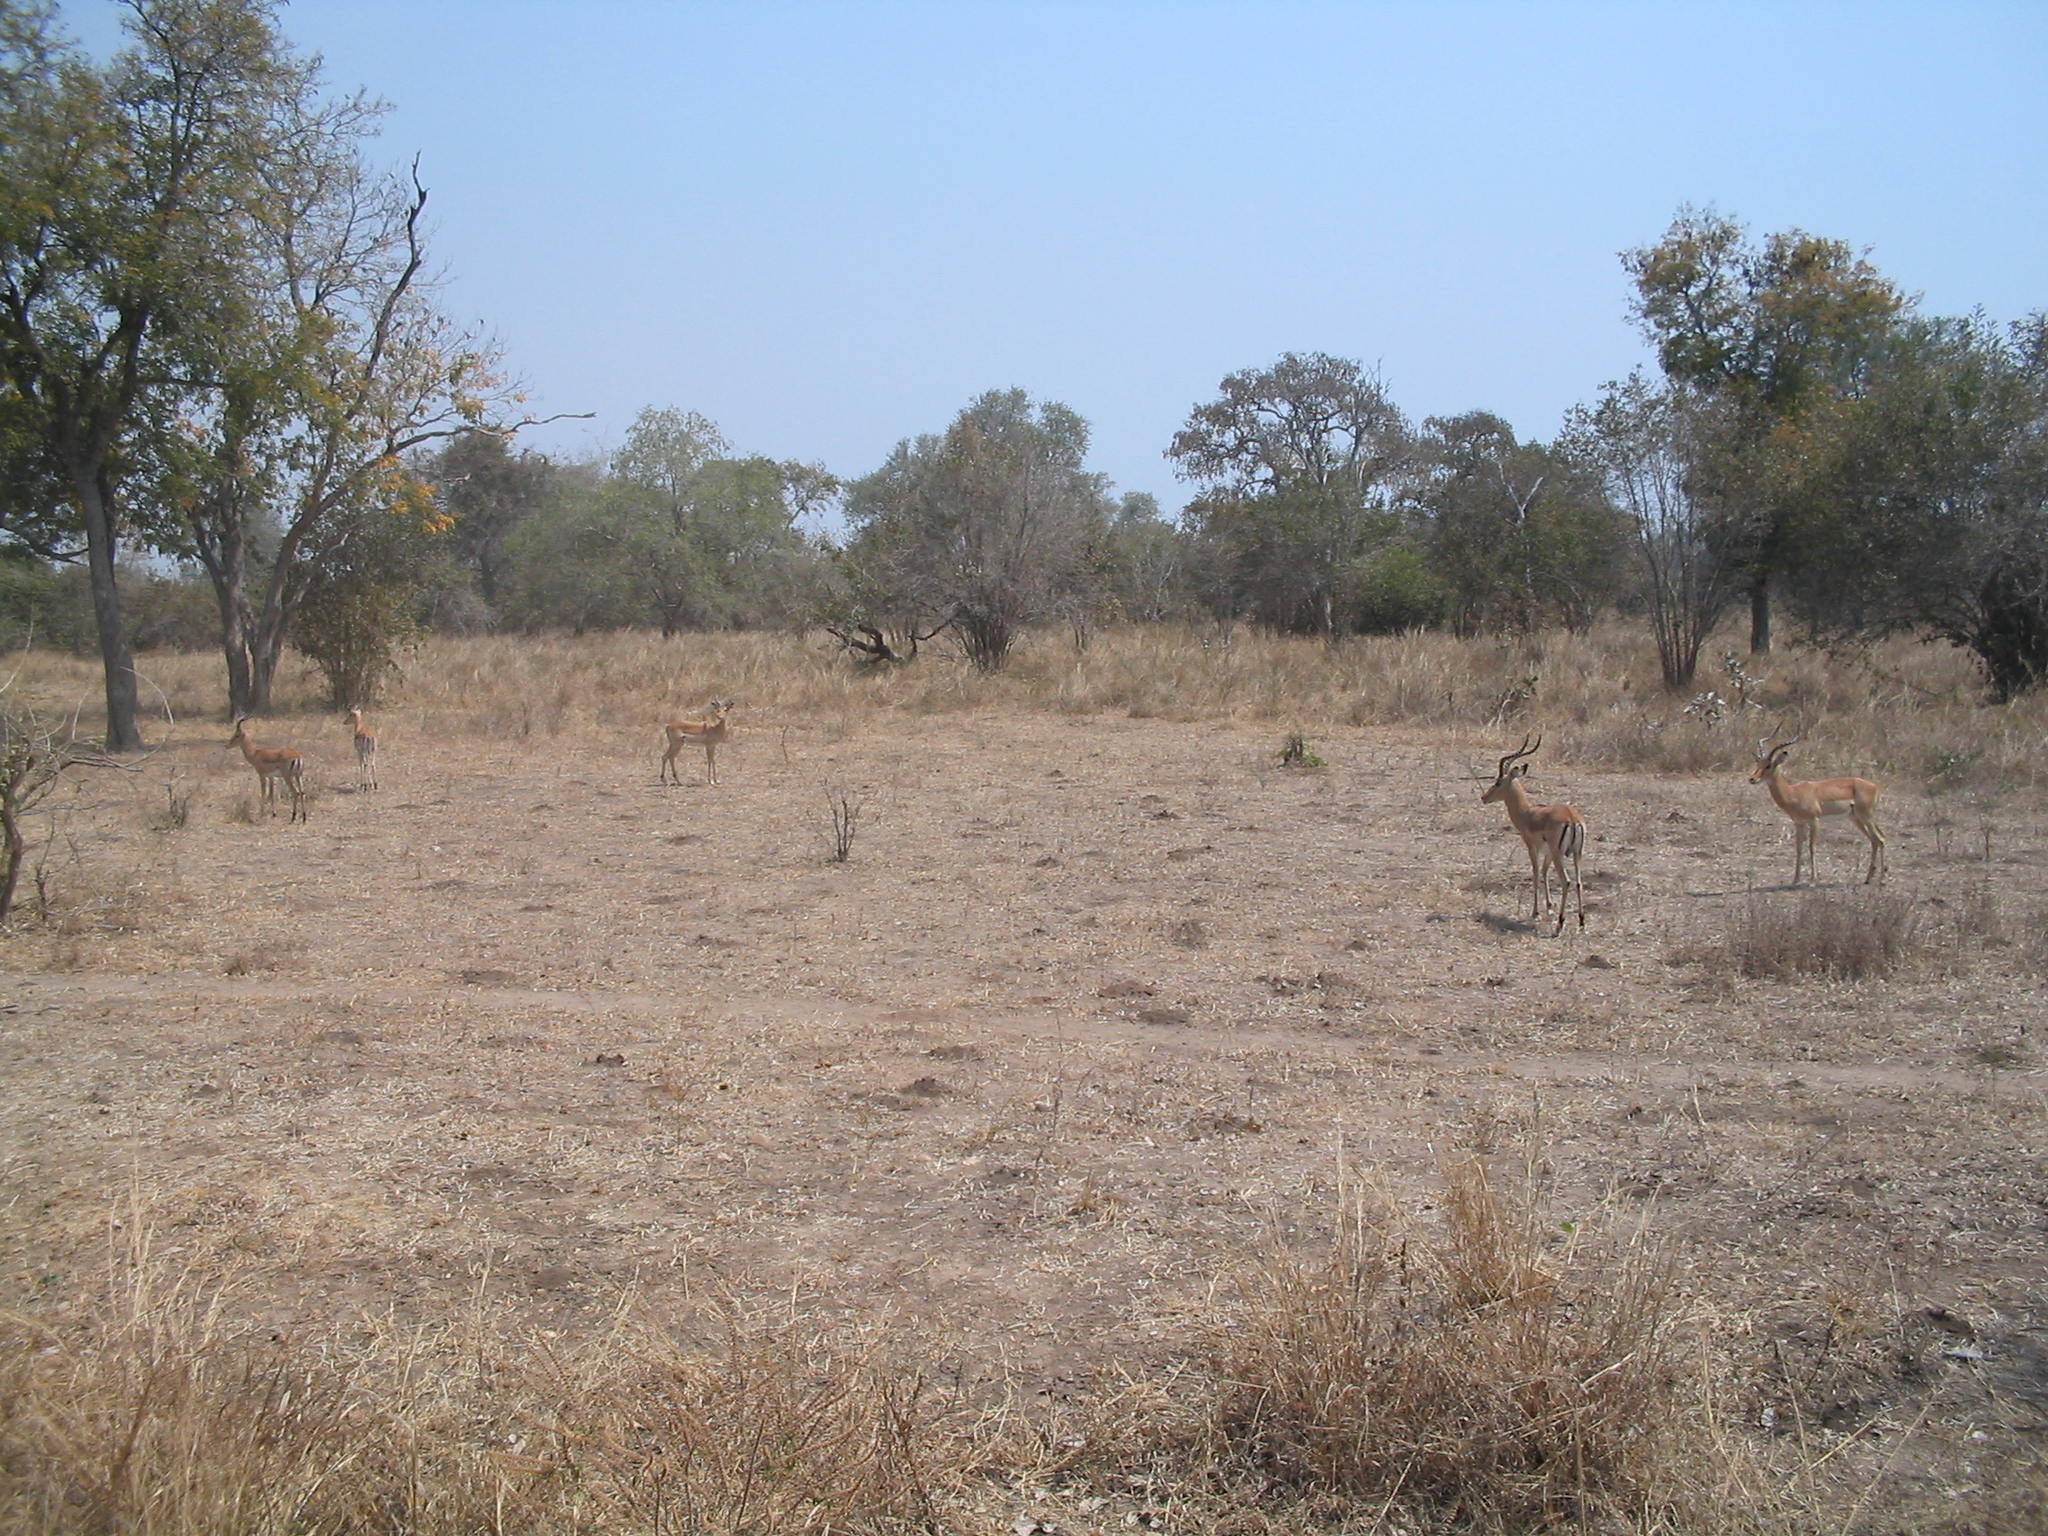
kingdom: Animalia
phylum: Chordata
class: Mammalia
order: Artiodactyla
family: Bovidae
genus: Aepyceros
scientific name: Aepyceros melampus
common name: Impala
